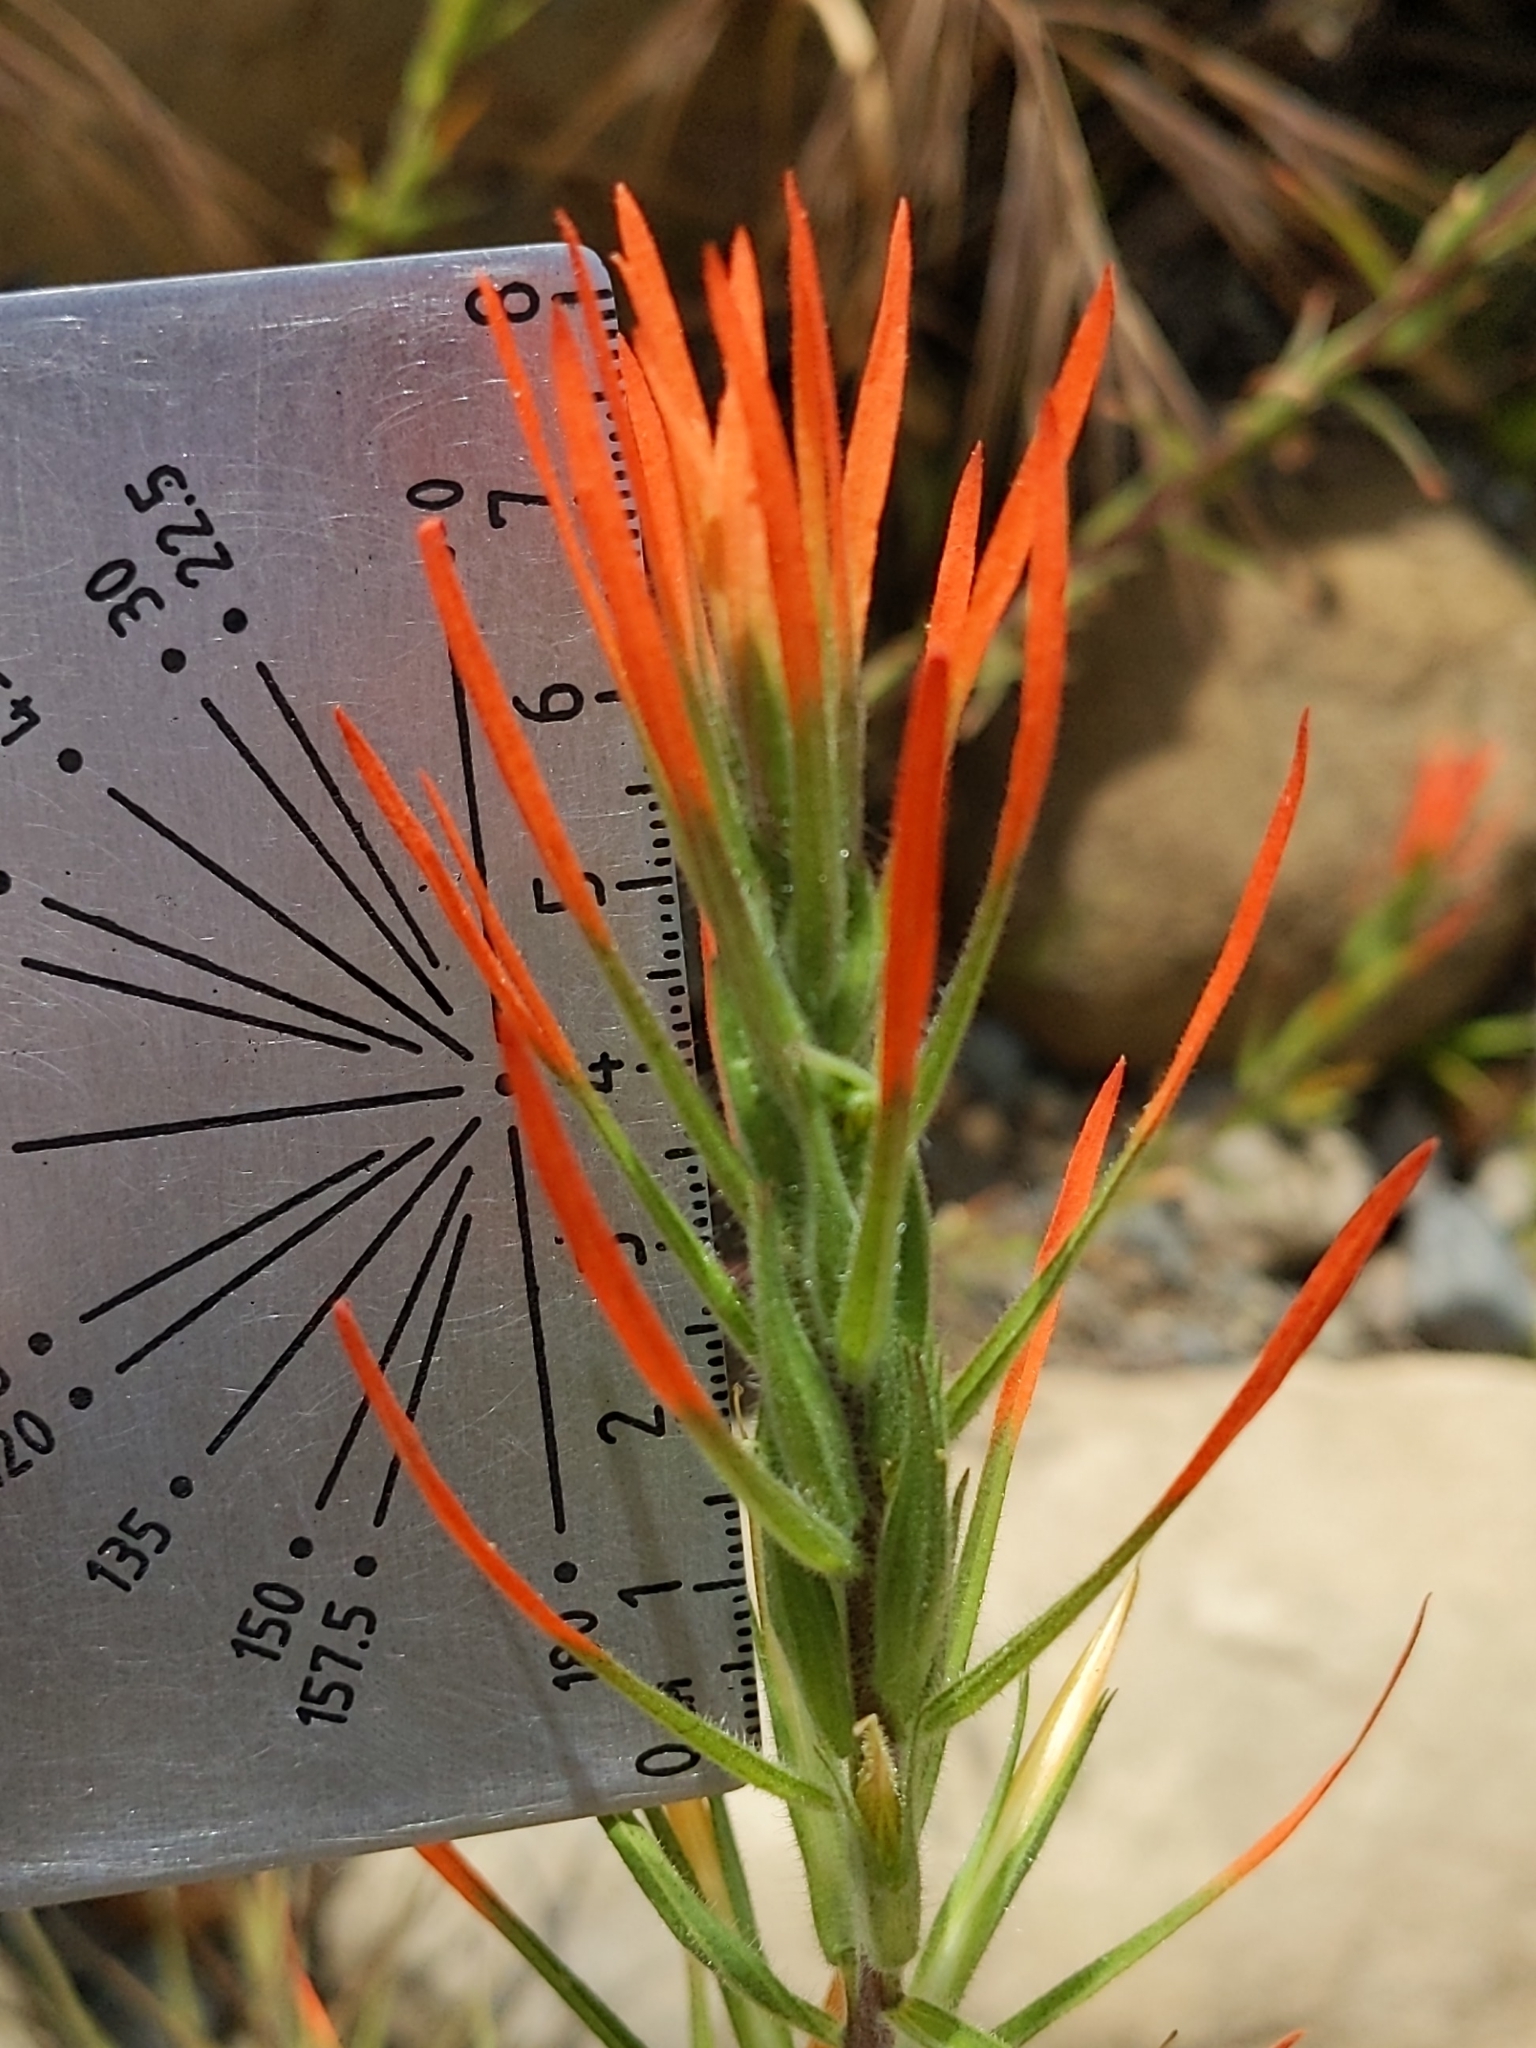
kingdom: Plantae
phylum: Tracheophyta
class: Magnoliopsida
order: Lamiales
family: Orobanchaceae
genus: Castilleja
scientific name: Castilleja minor
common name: Seep paintbrush
